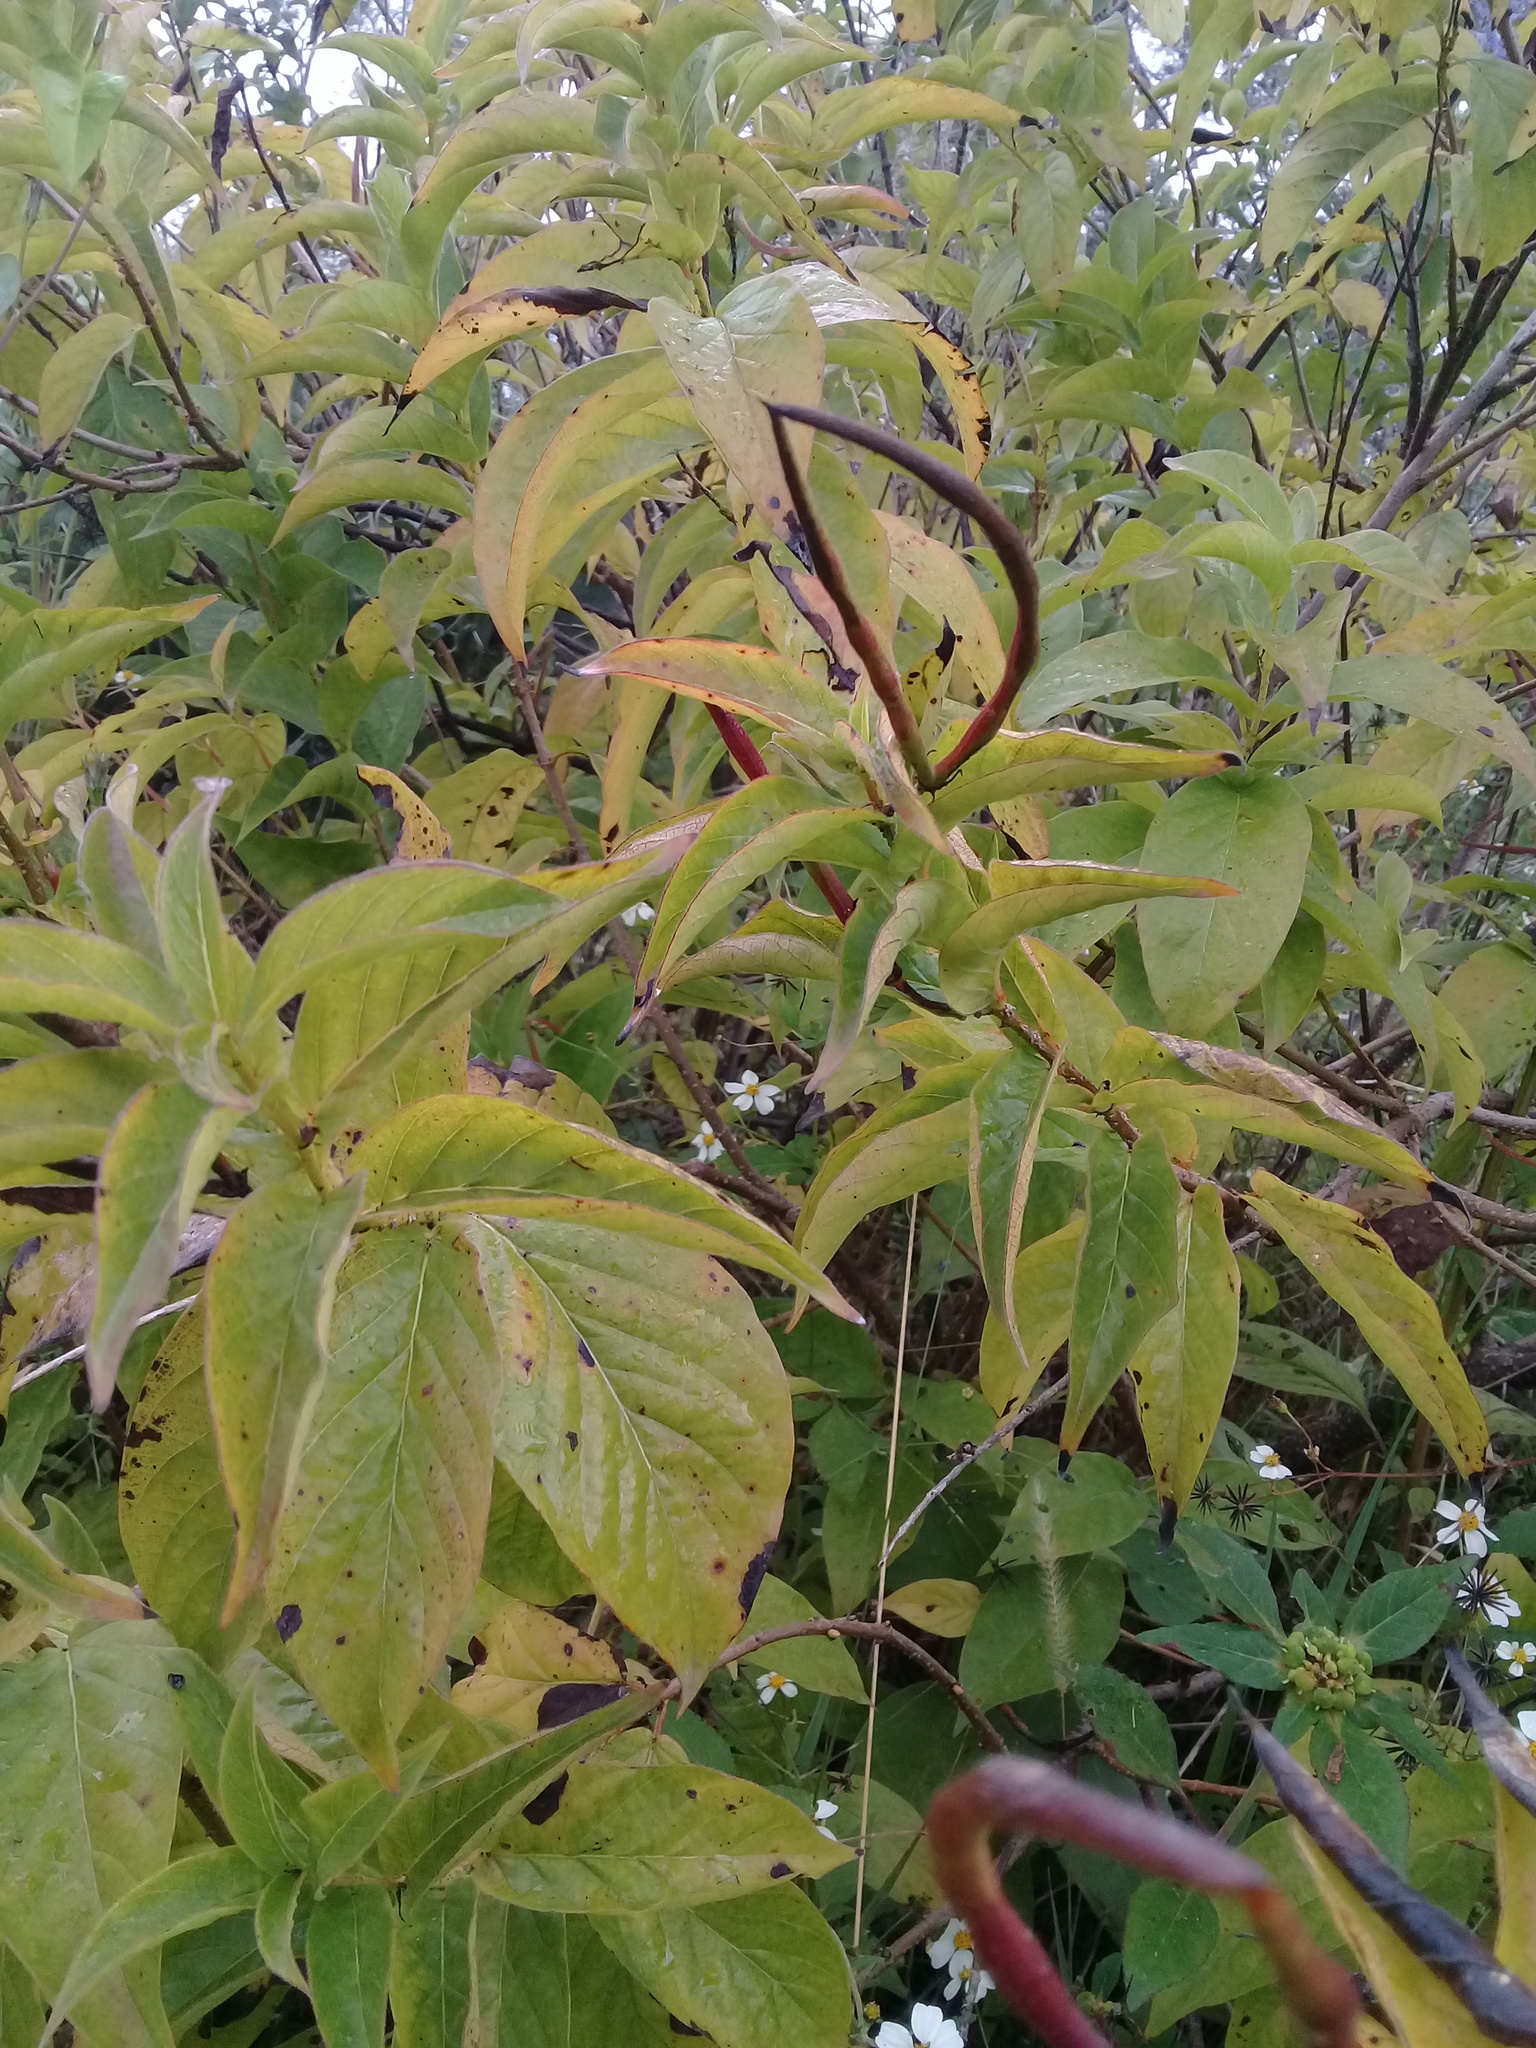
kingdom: Plantae
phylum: Tracheophyta
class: Magnoliopsida
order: Gentianales
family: Apocynaceae
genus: Mandevilla
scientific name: Mandevilla foliosa
